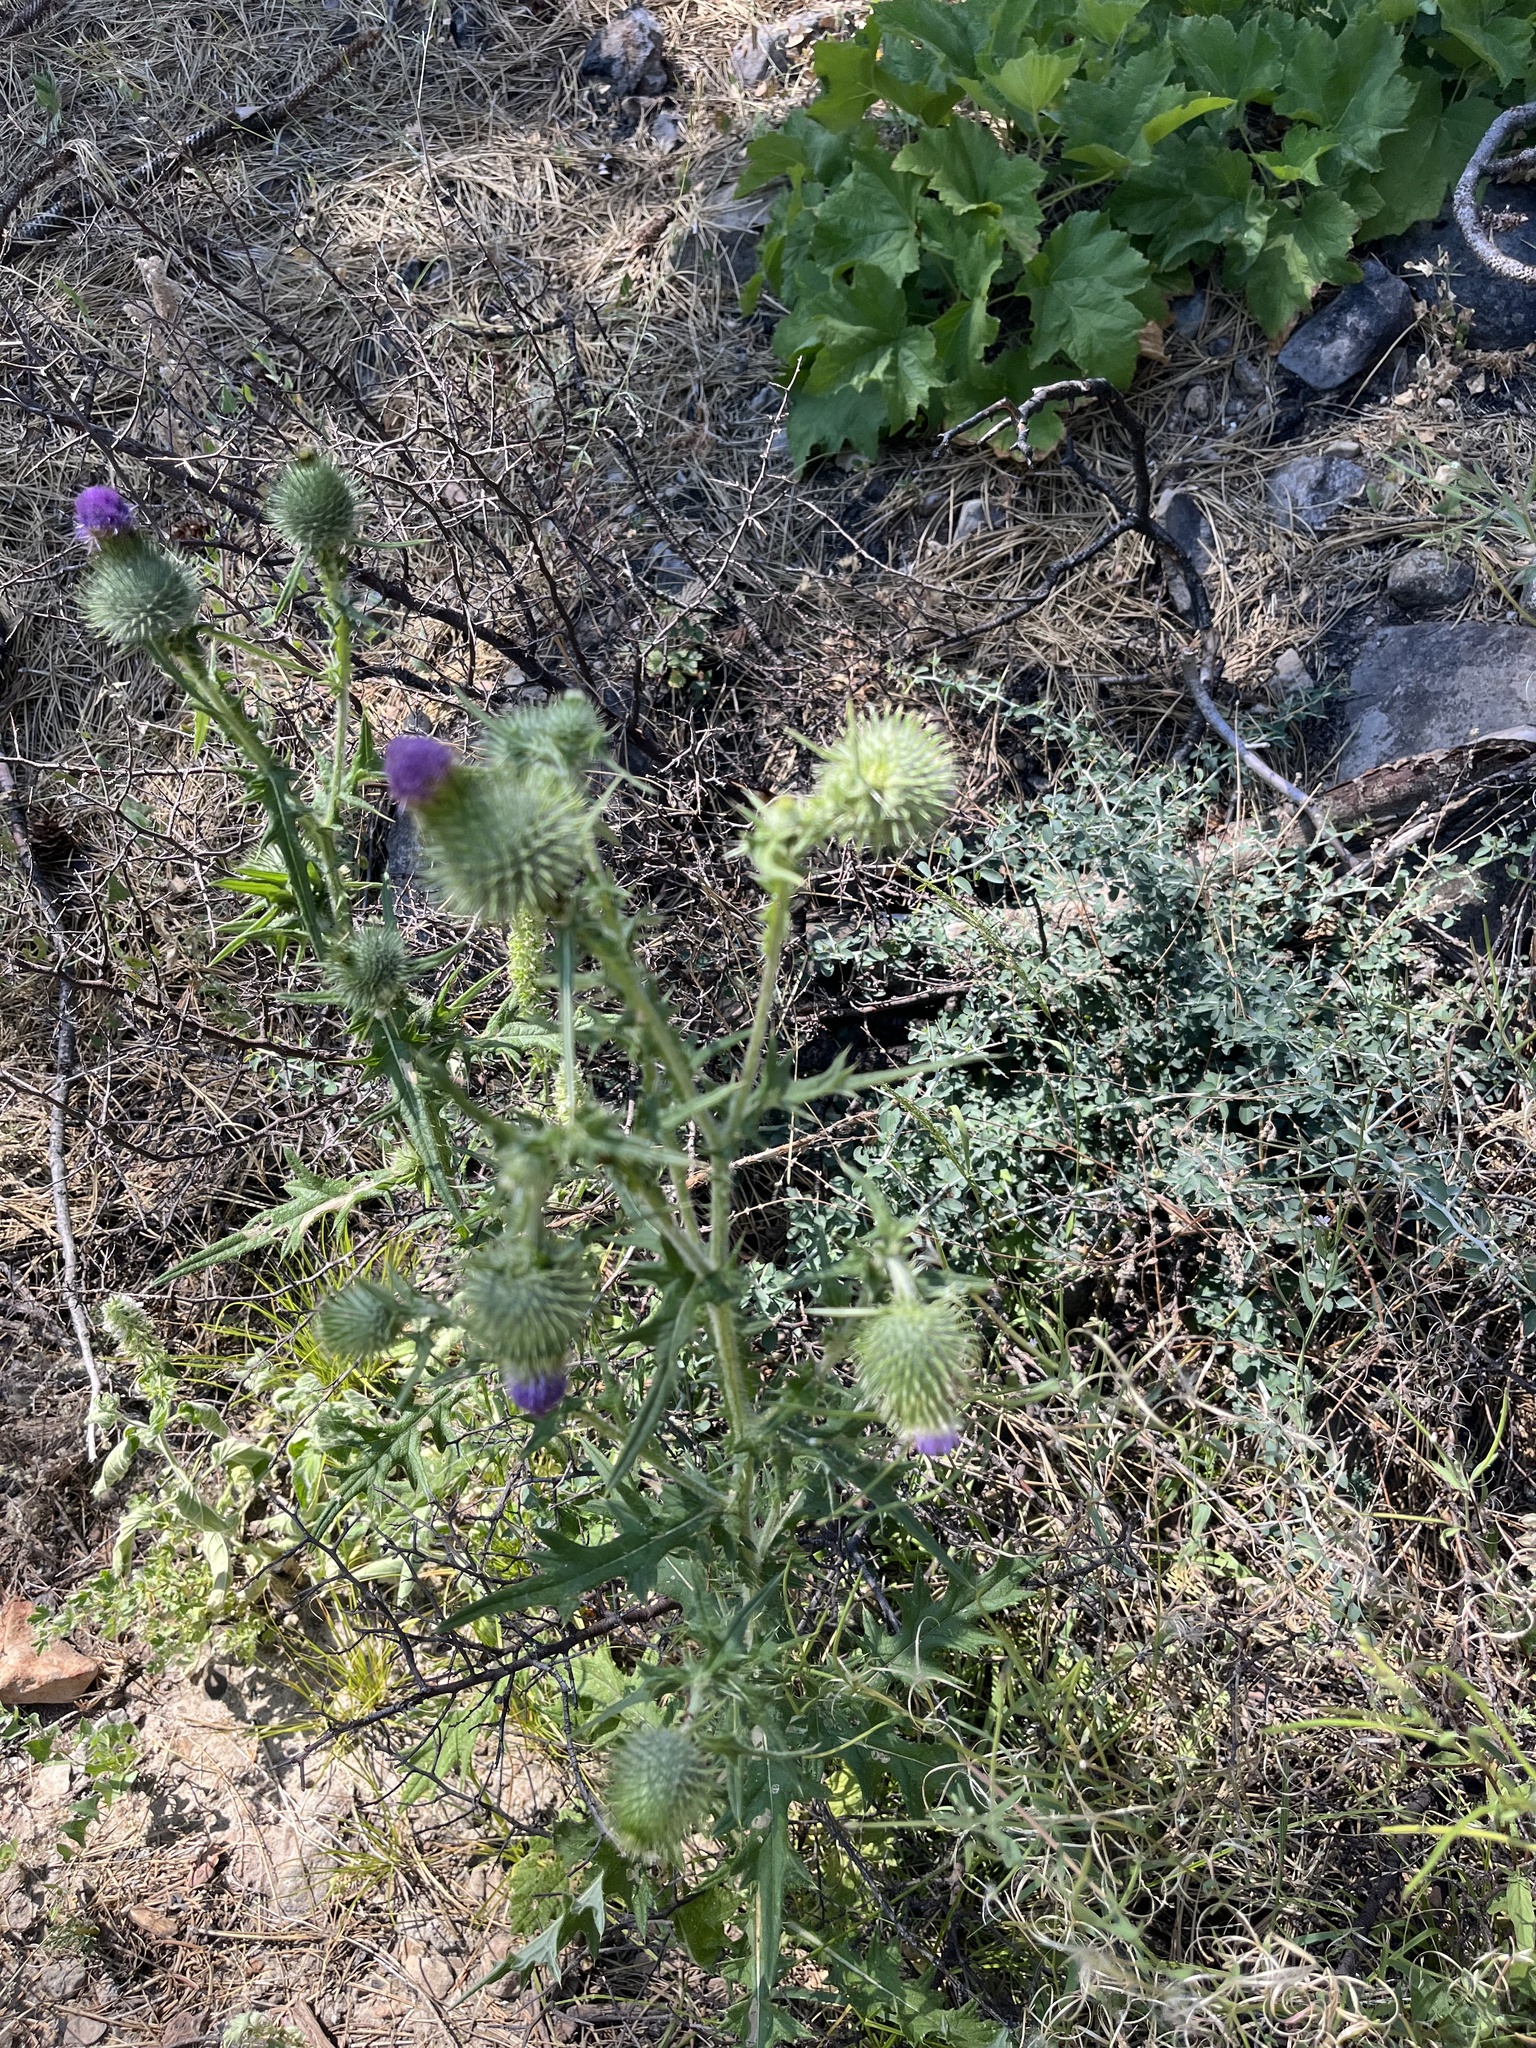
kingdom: Plantae
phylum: Tracheophyta
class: Magnoliopsida
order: Asterales
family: Asteraceae
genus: Cirsium
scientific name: Cirsium vulgare
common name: Bull thistle
